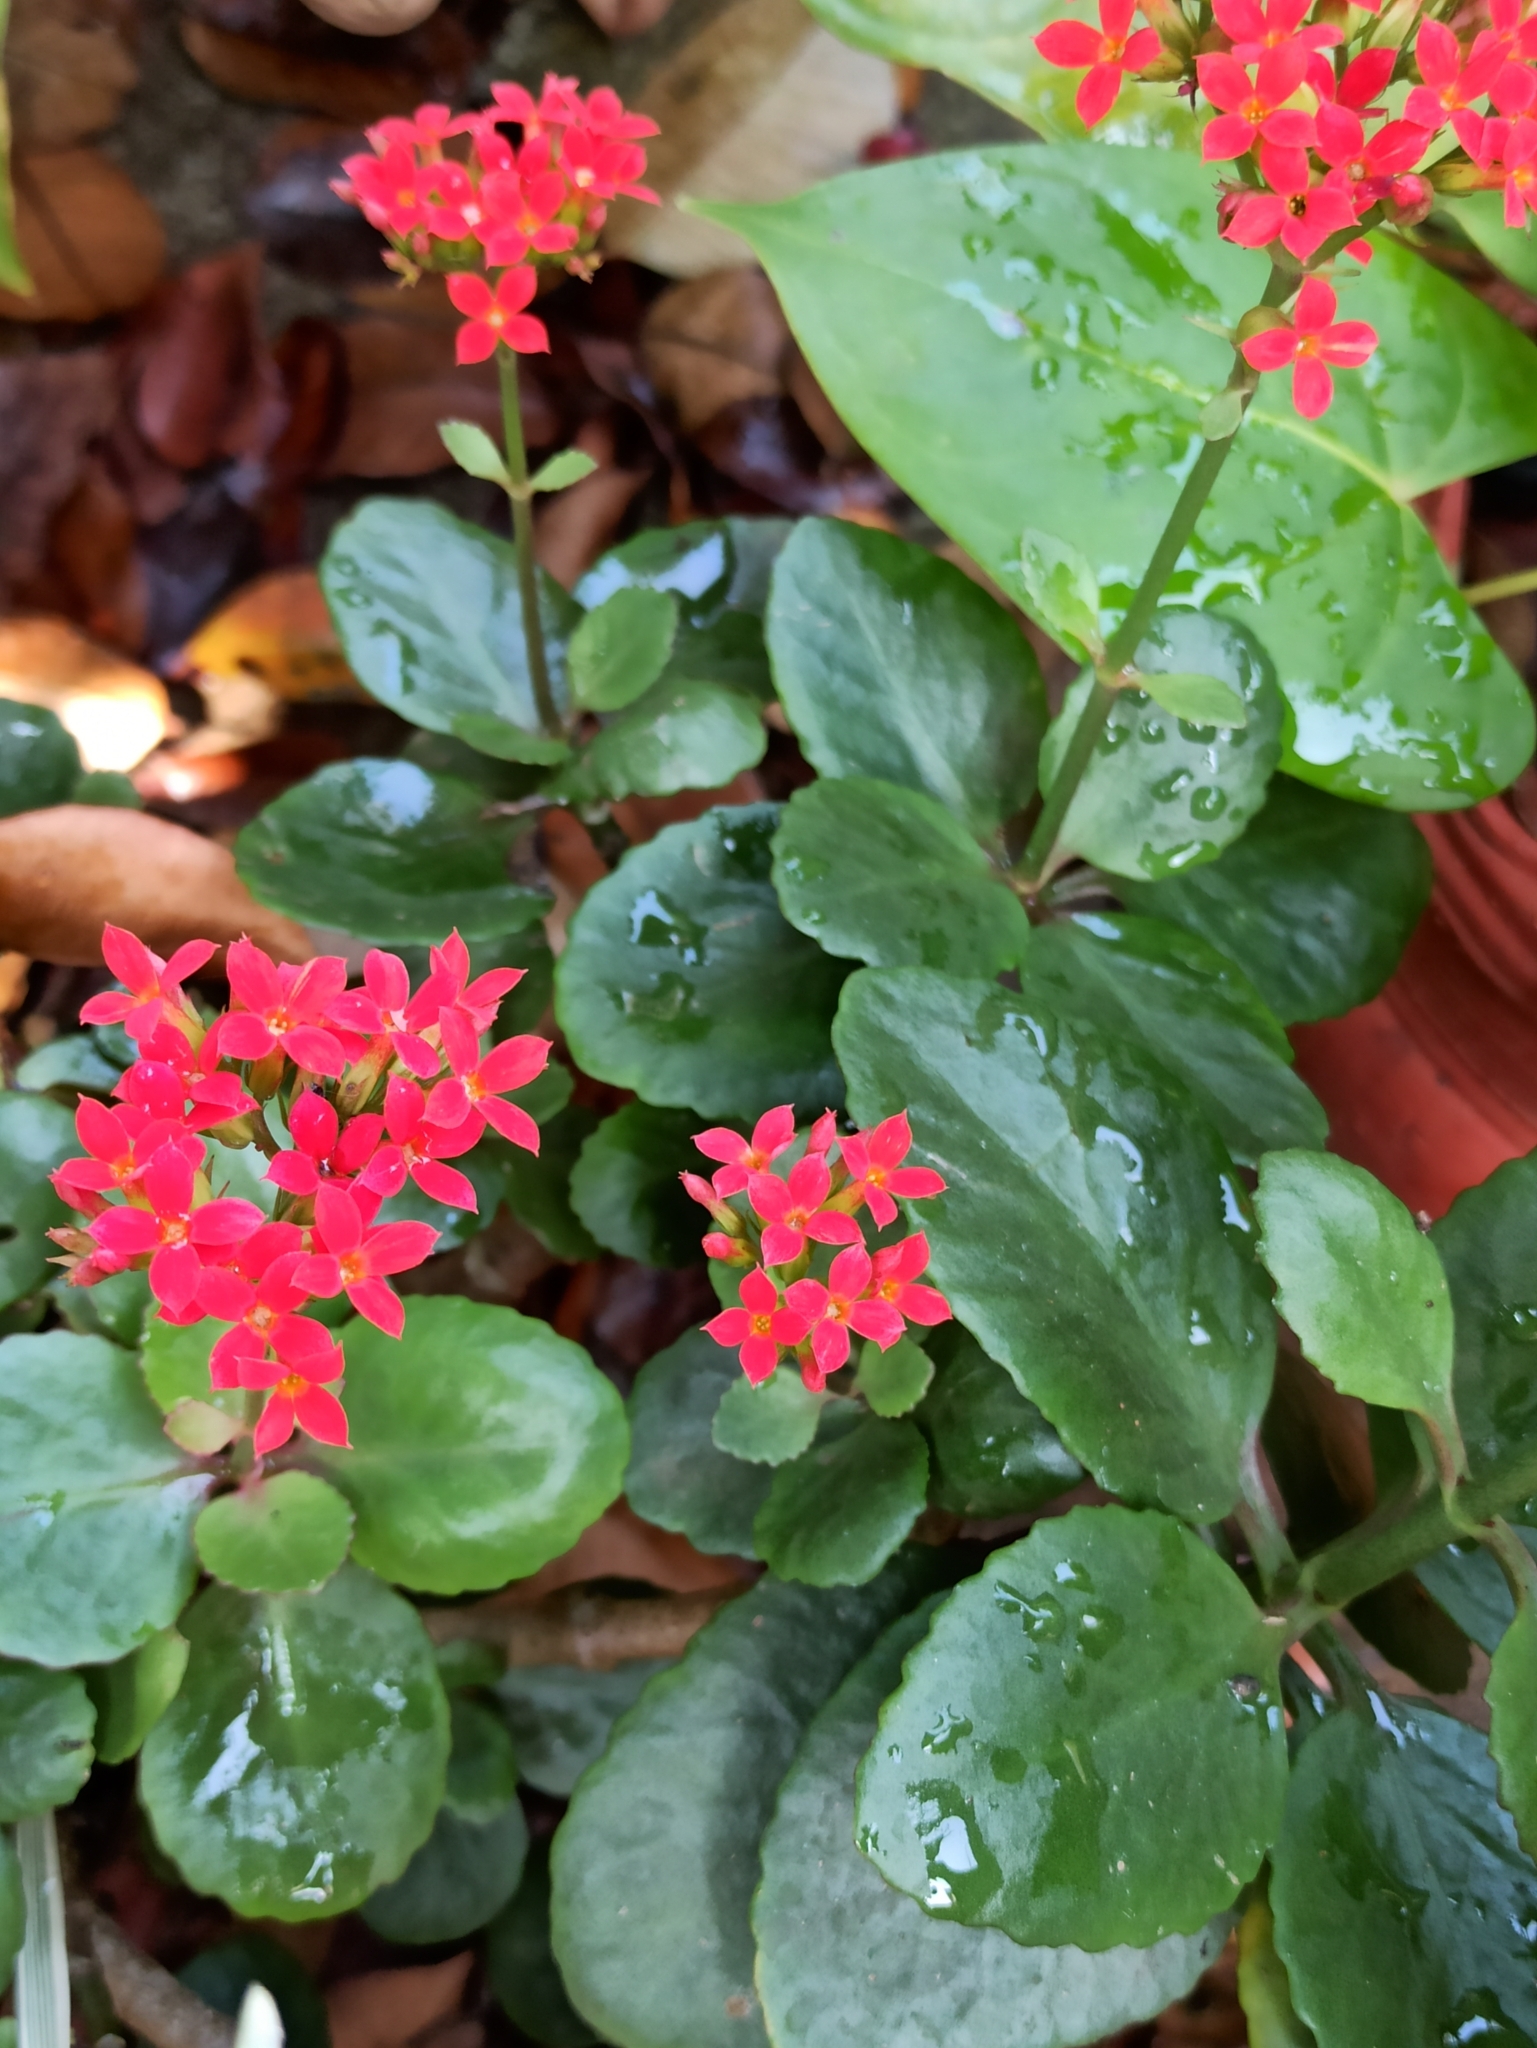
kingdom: Plantae
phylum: Tracheophyta
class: Magnoliopsida
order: Saxifragales
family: Crassulaceae
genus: Kalanchoe
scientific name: Kalanchoe blossfeldiana
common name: Flaming katy
